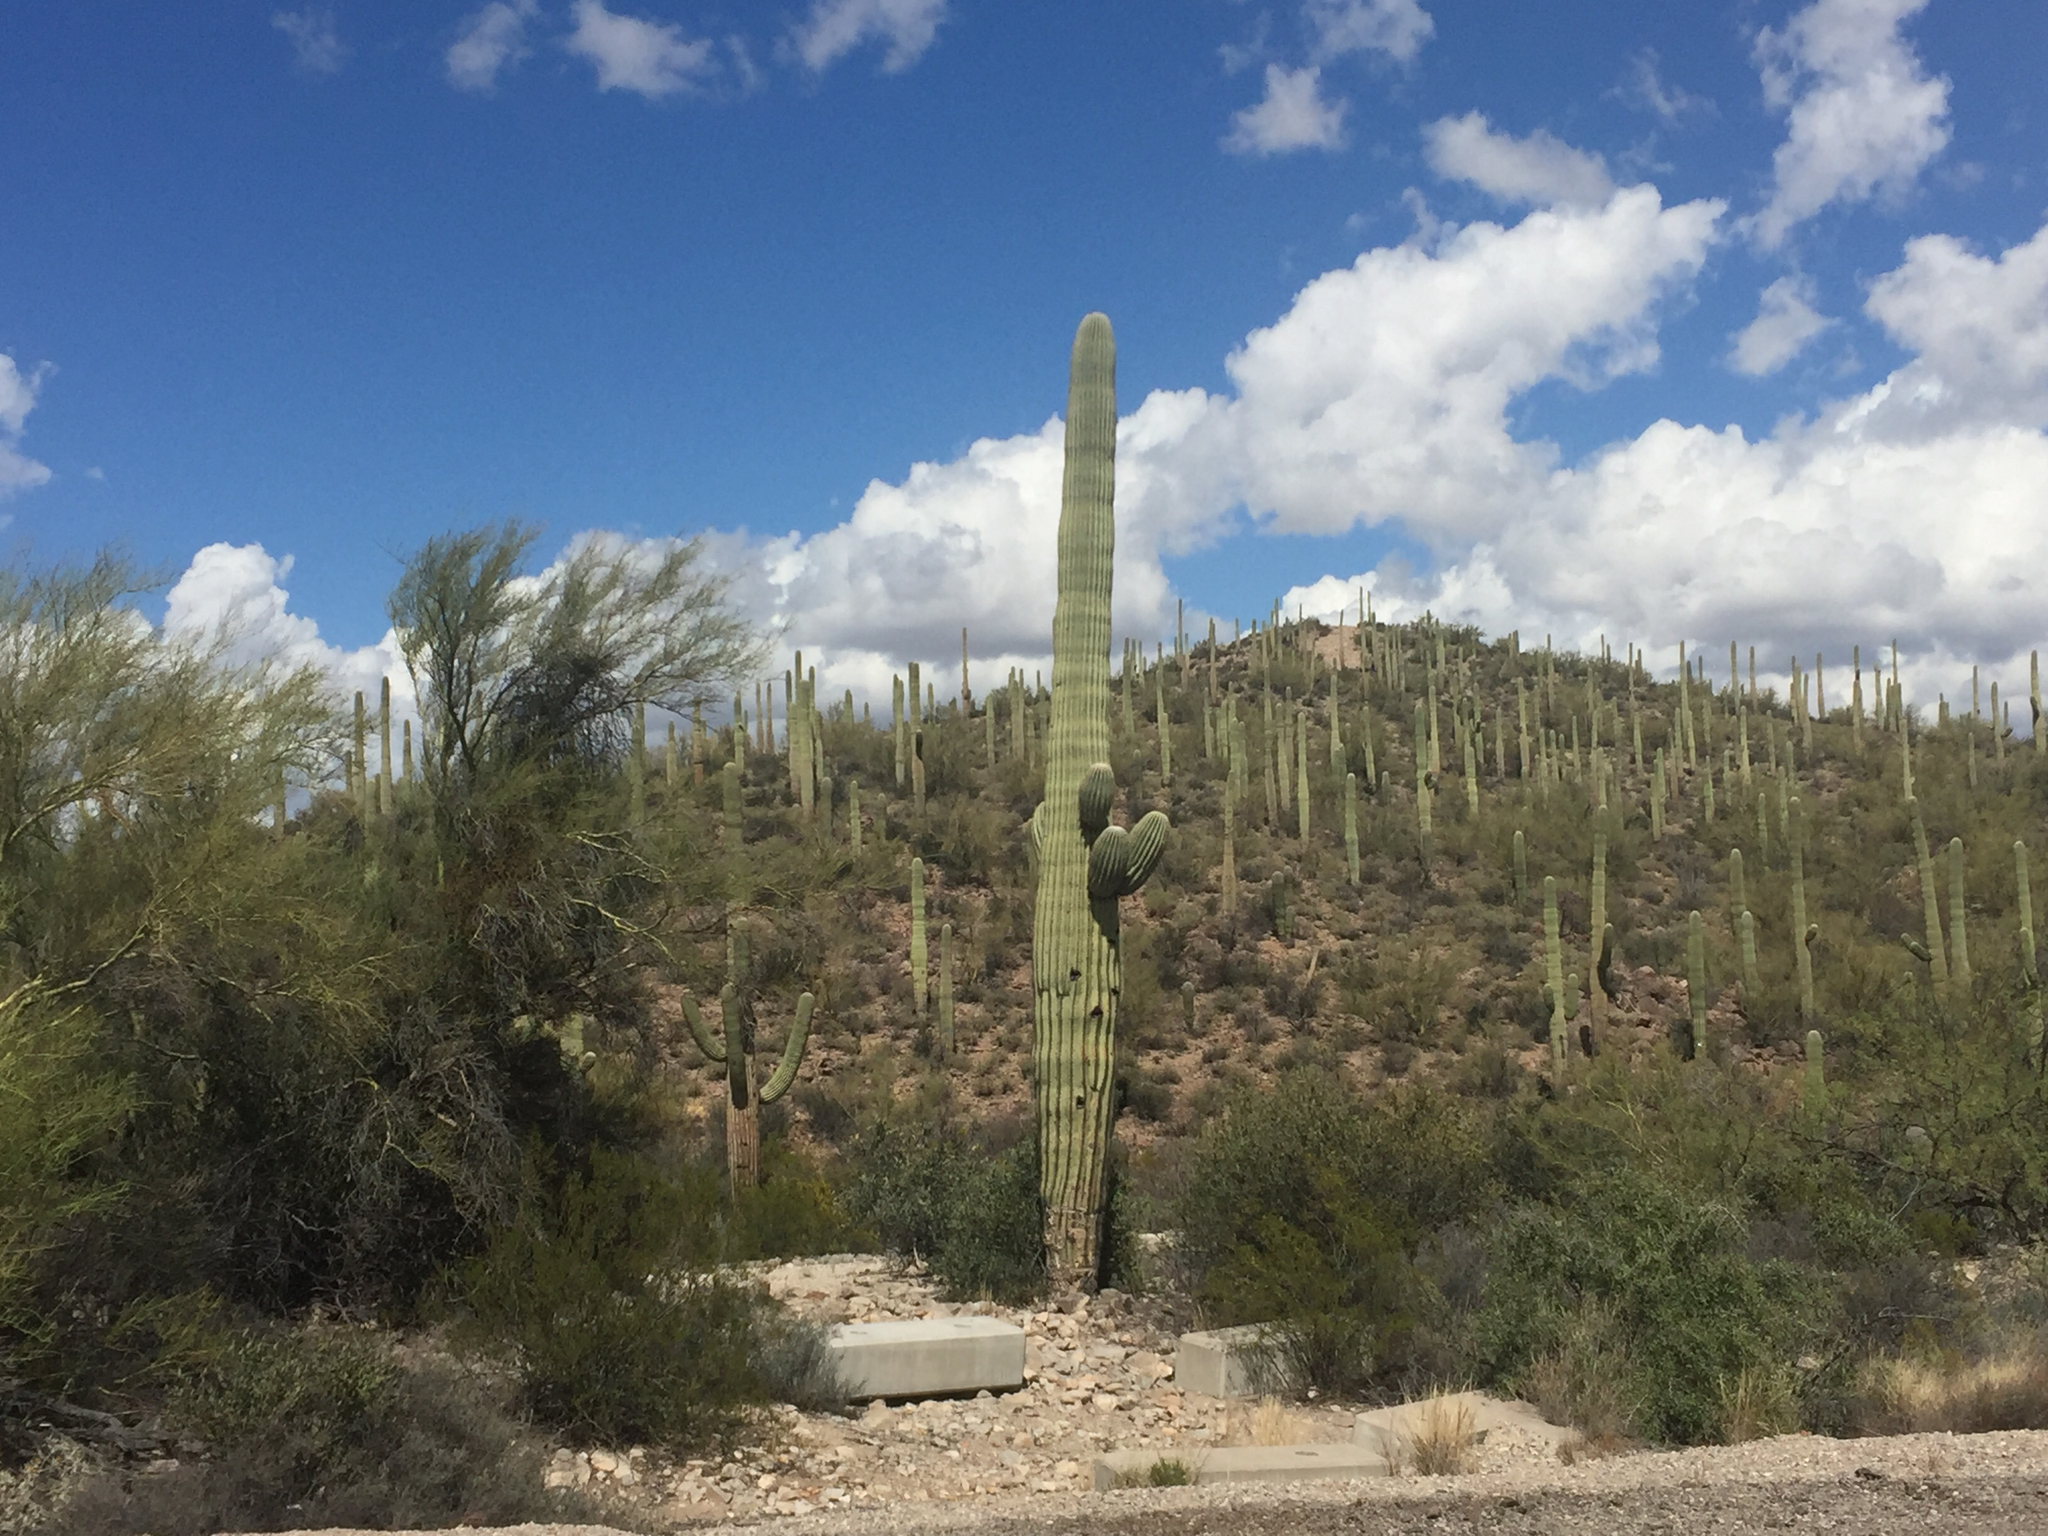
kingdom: Plantae
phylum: Tracheophyta
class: Magnoliopsida
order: Caryophyllales
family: Cactaceae
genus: Carnegiea
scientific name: Carnegiea gigantea
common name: Saguaro
